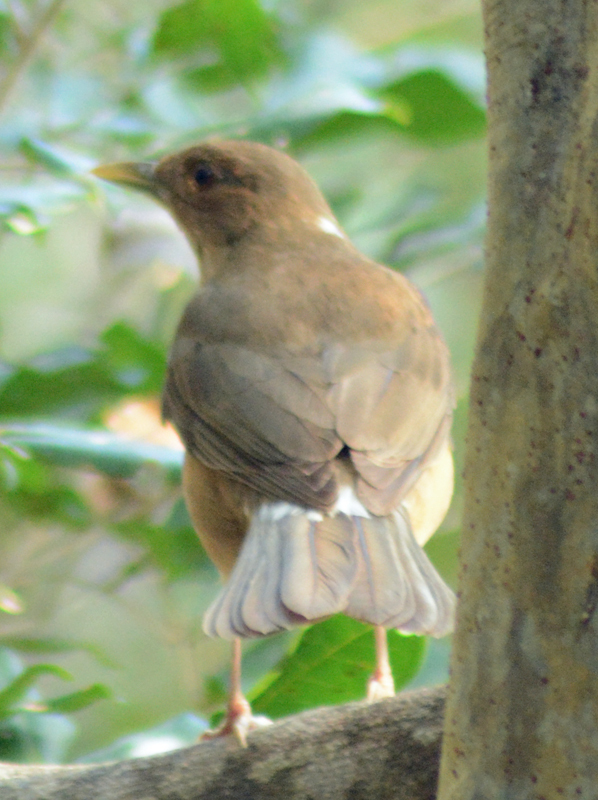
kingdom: Animalia
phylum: Chordata
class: Aves
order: Passeriformes
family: Turdidae
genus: Turdus
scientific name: Turdus grayi
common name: Clay-colored thrush
